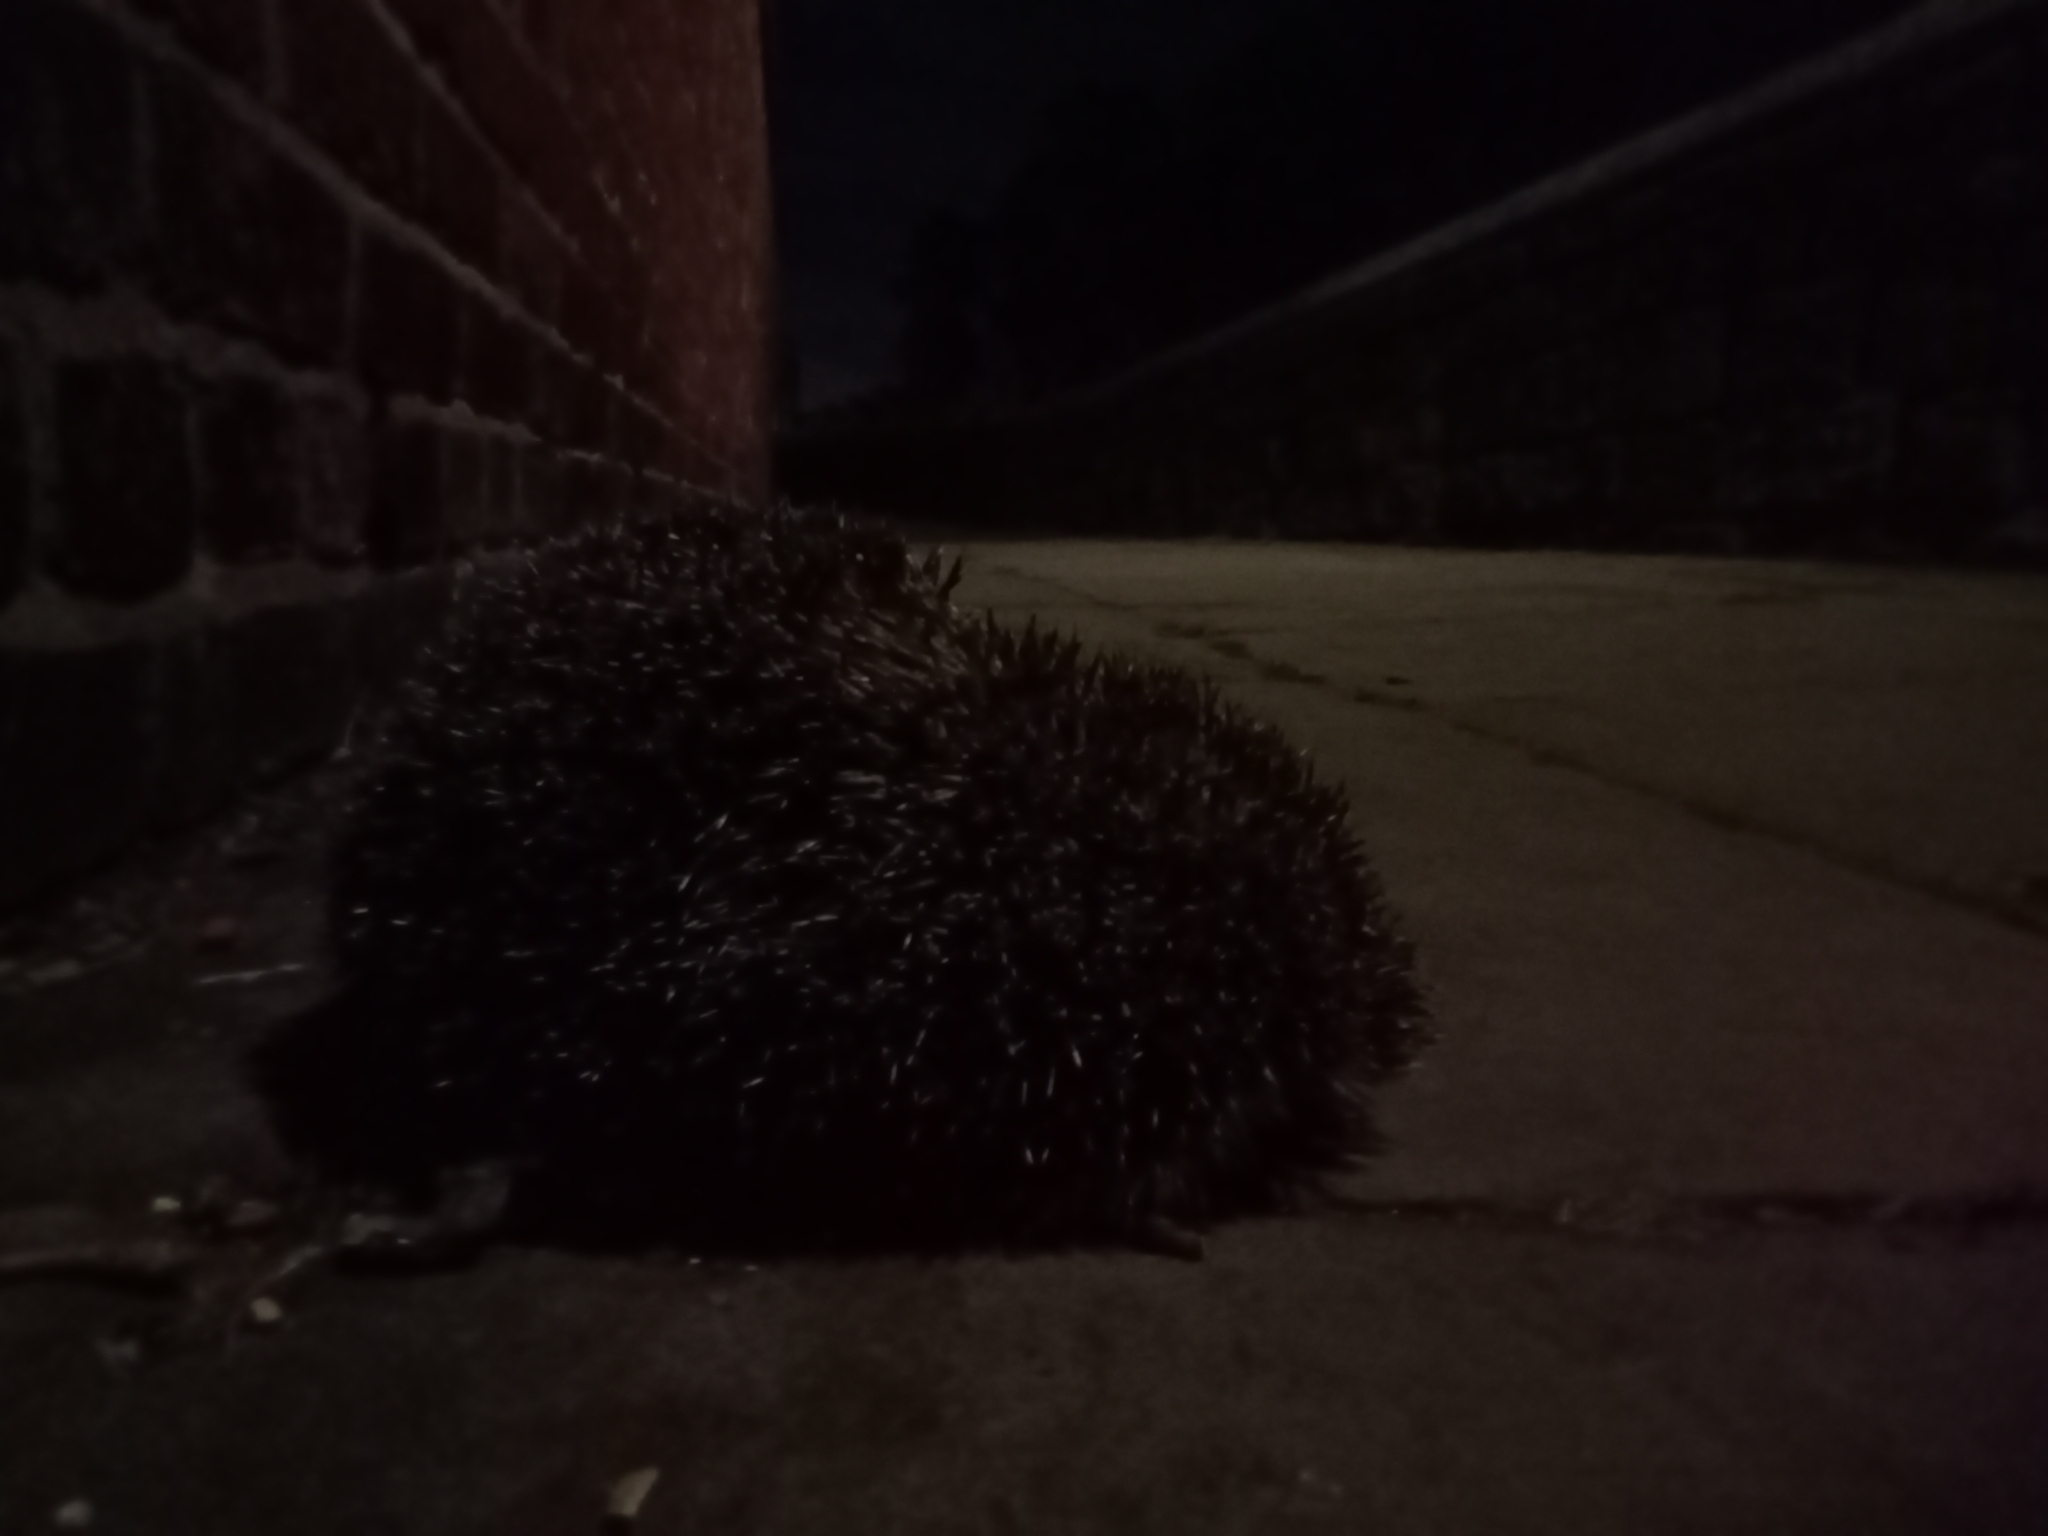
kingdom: Animalia
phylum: Chordata
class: Mammalia
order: Erinaceomorpha
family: Erinaceidae
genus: Erinaceus
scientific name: Erinaceus europaeus
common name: West european hedgehog
